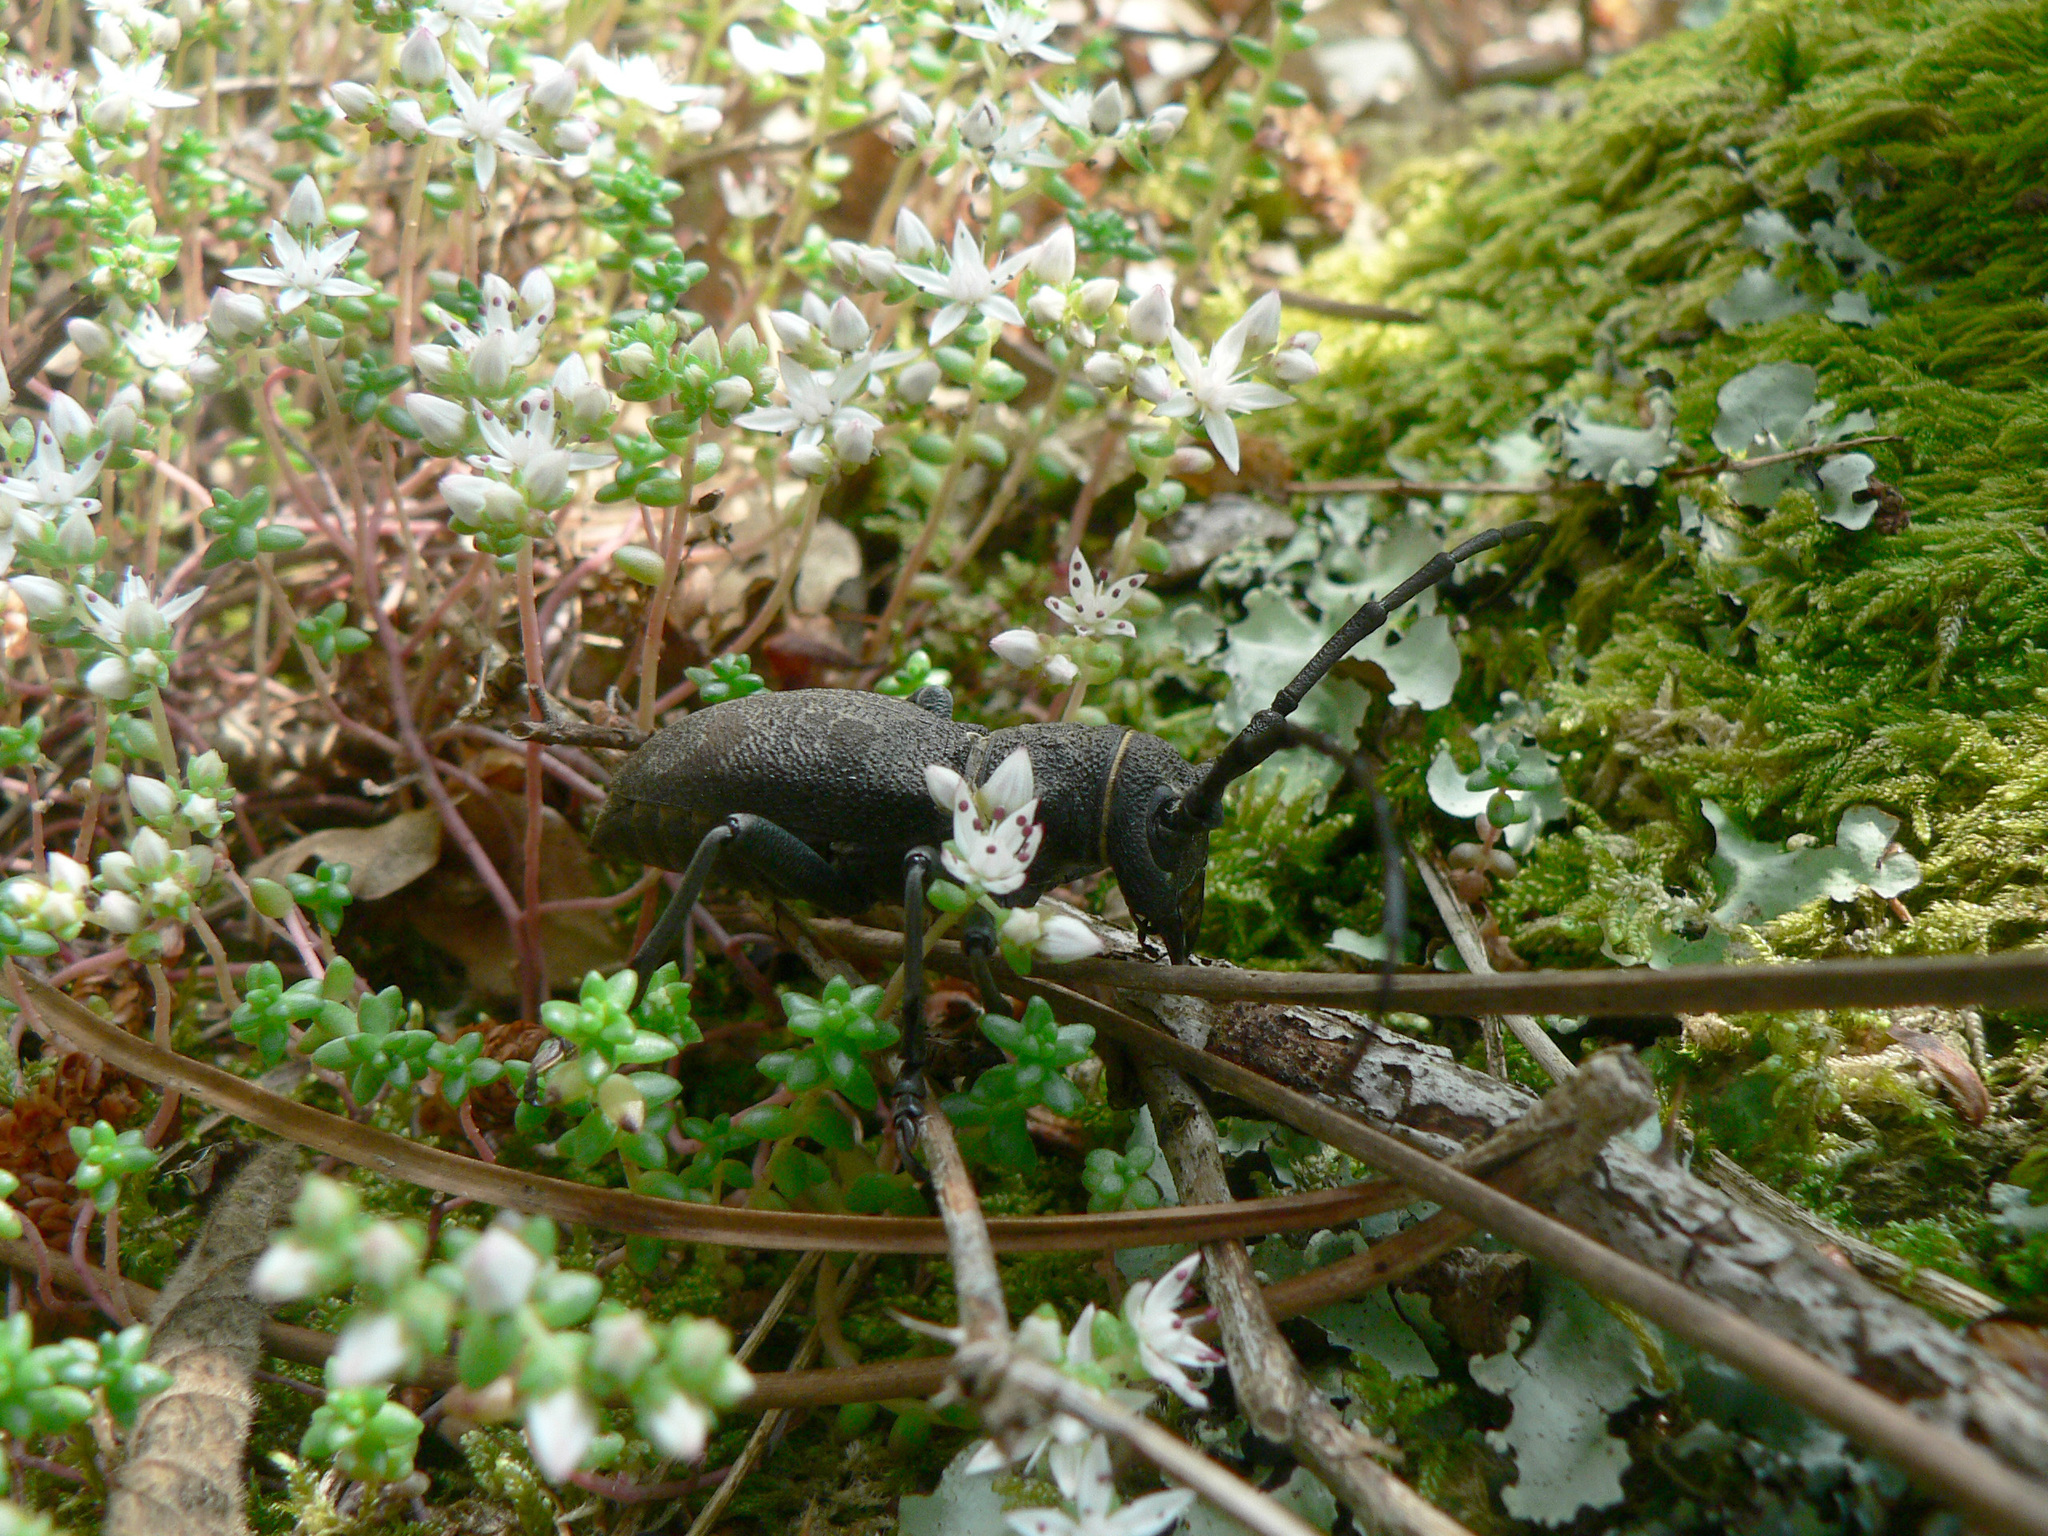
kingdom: Animalia
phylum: Arthropoda
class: Insecta
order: Coleoptera
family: Cerambycidae
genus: Morimus
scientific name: Morimus asper
